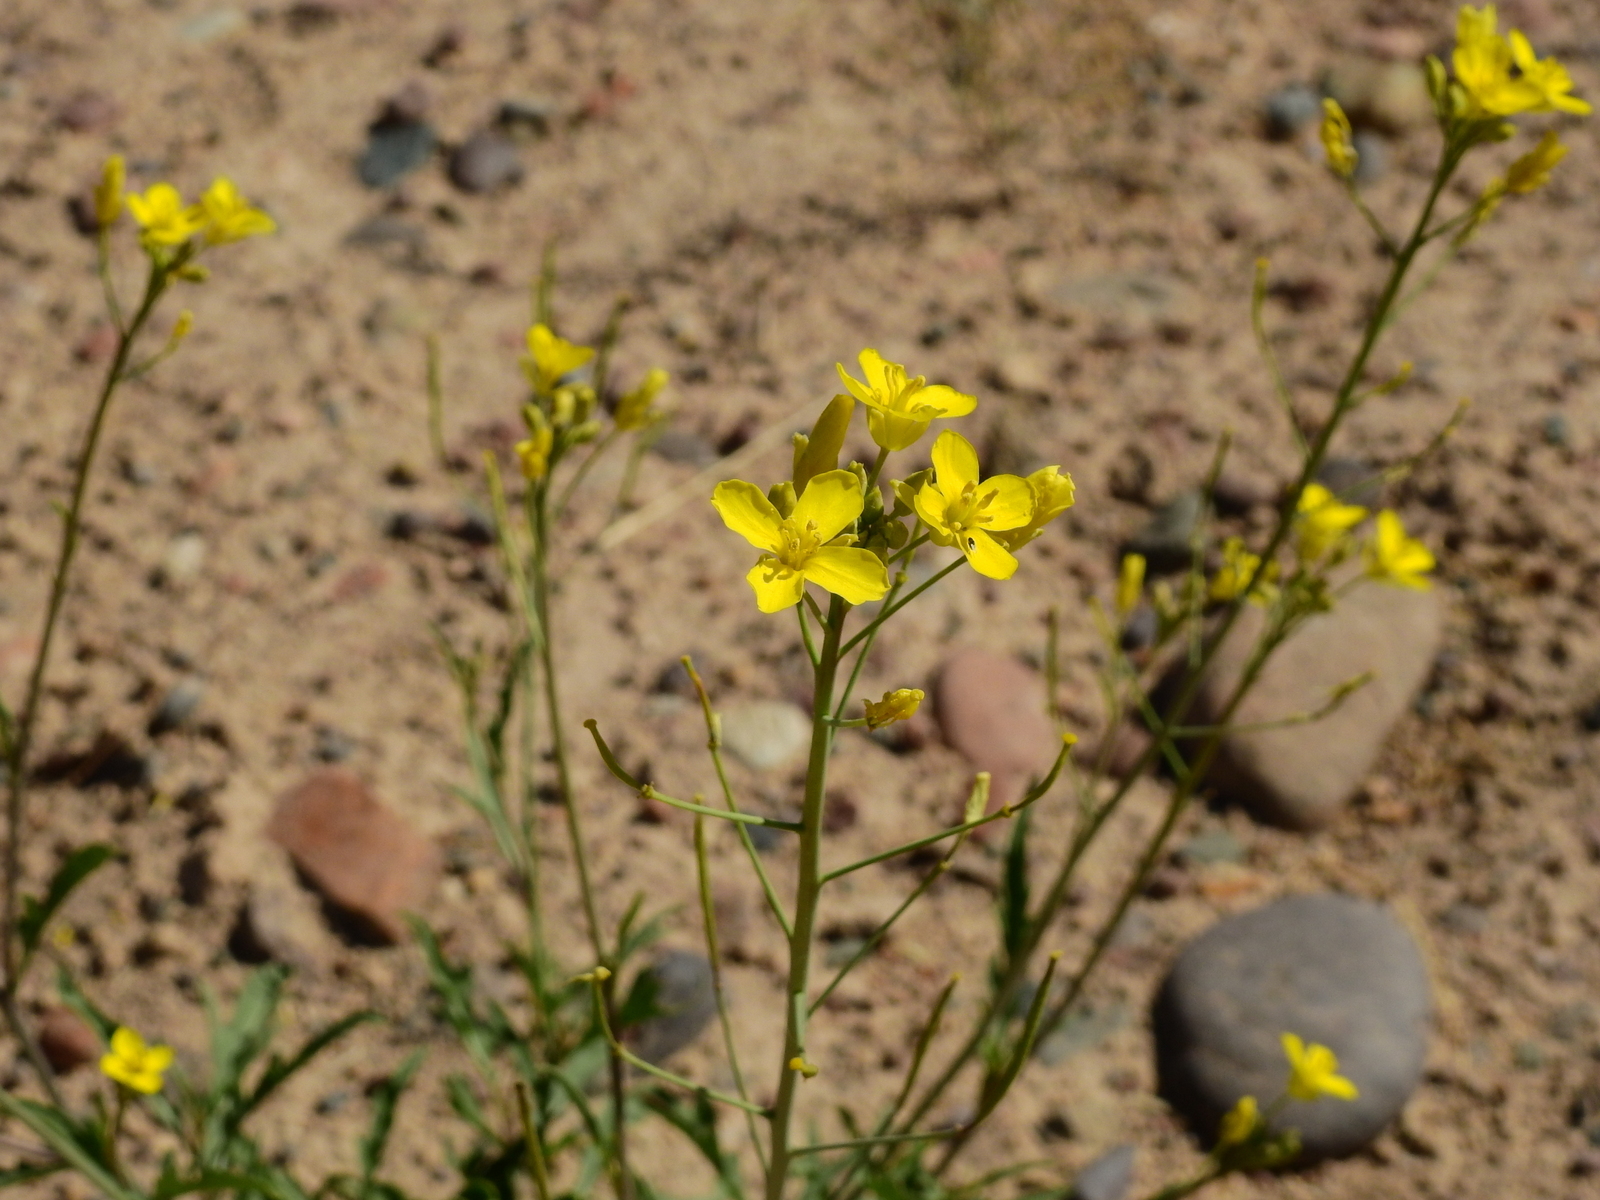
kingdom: Plantae
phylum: Tracheophyta
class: Magnoliopsida
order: Brassicales
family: Brassicaceae
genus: Diplotaxis
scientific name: Diplotaxis tenuifolia
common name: Perennial wall-rocket
